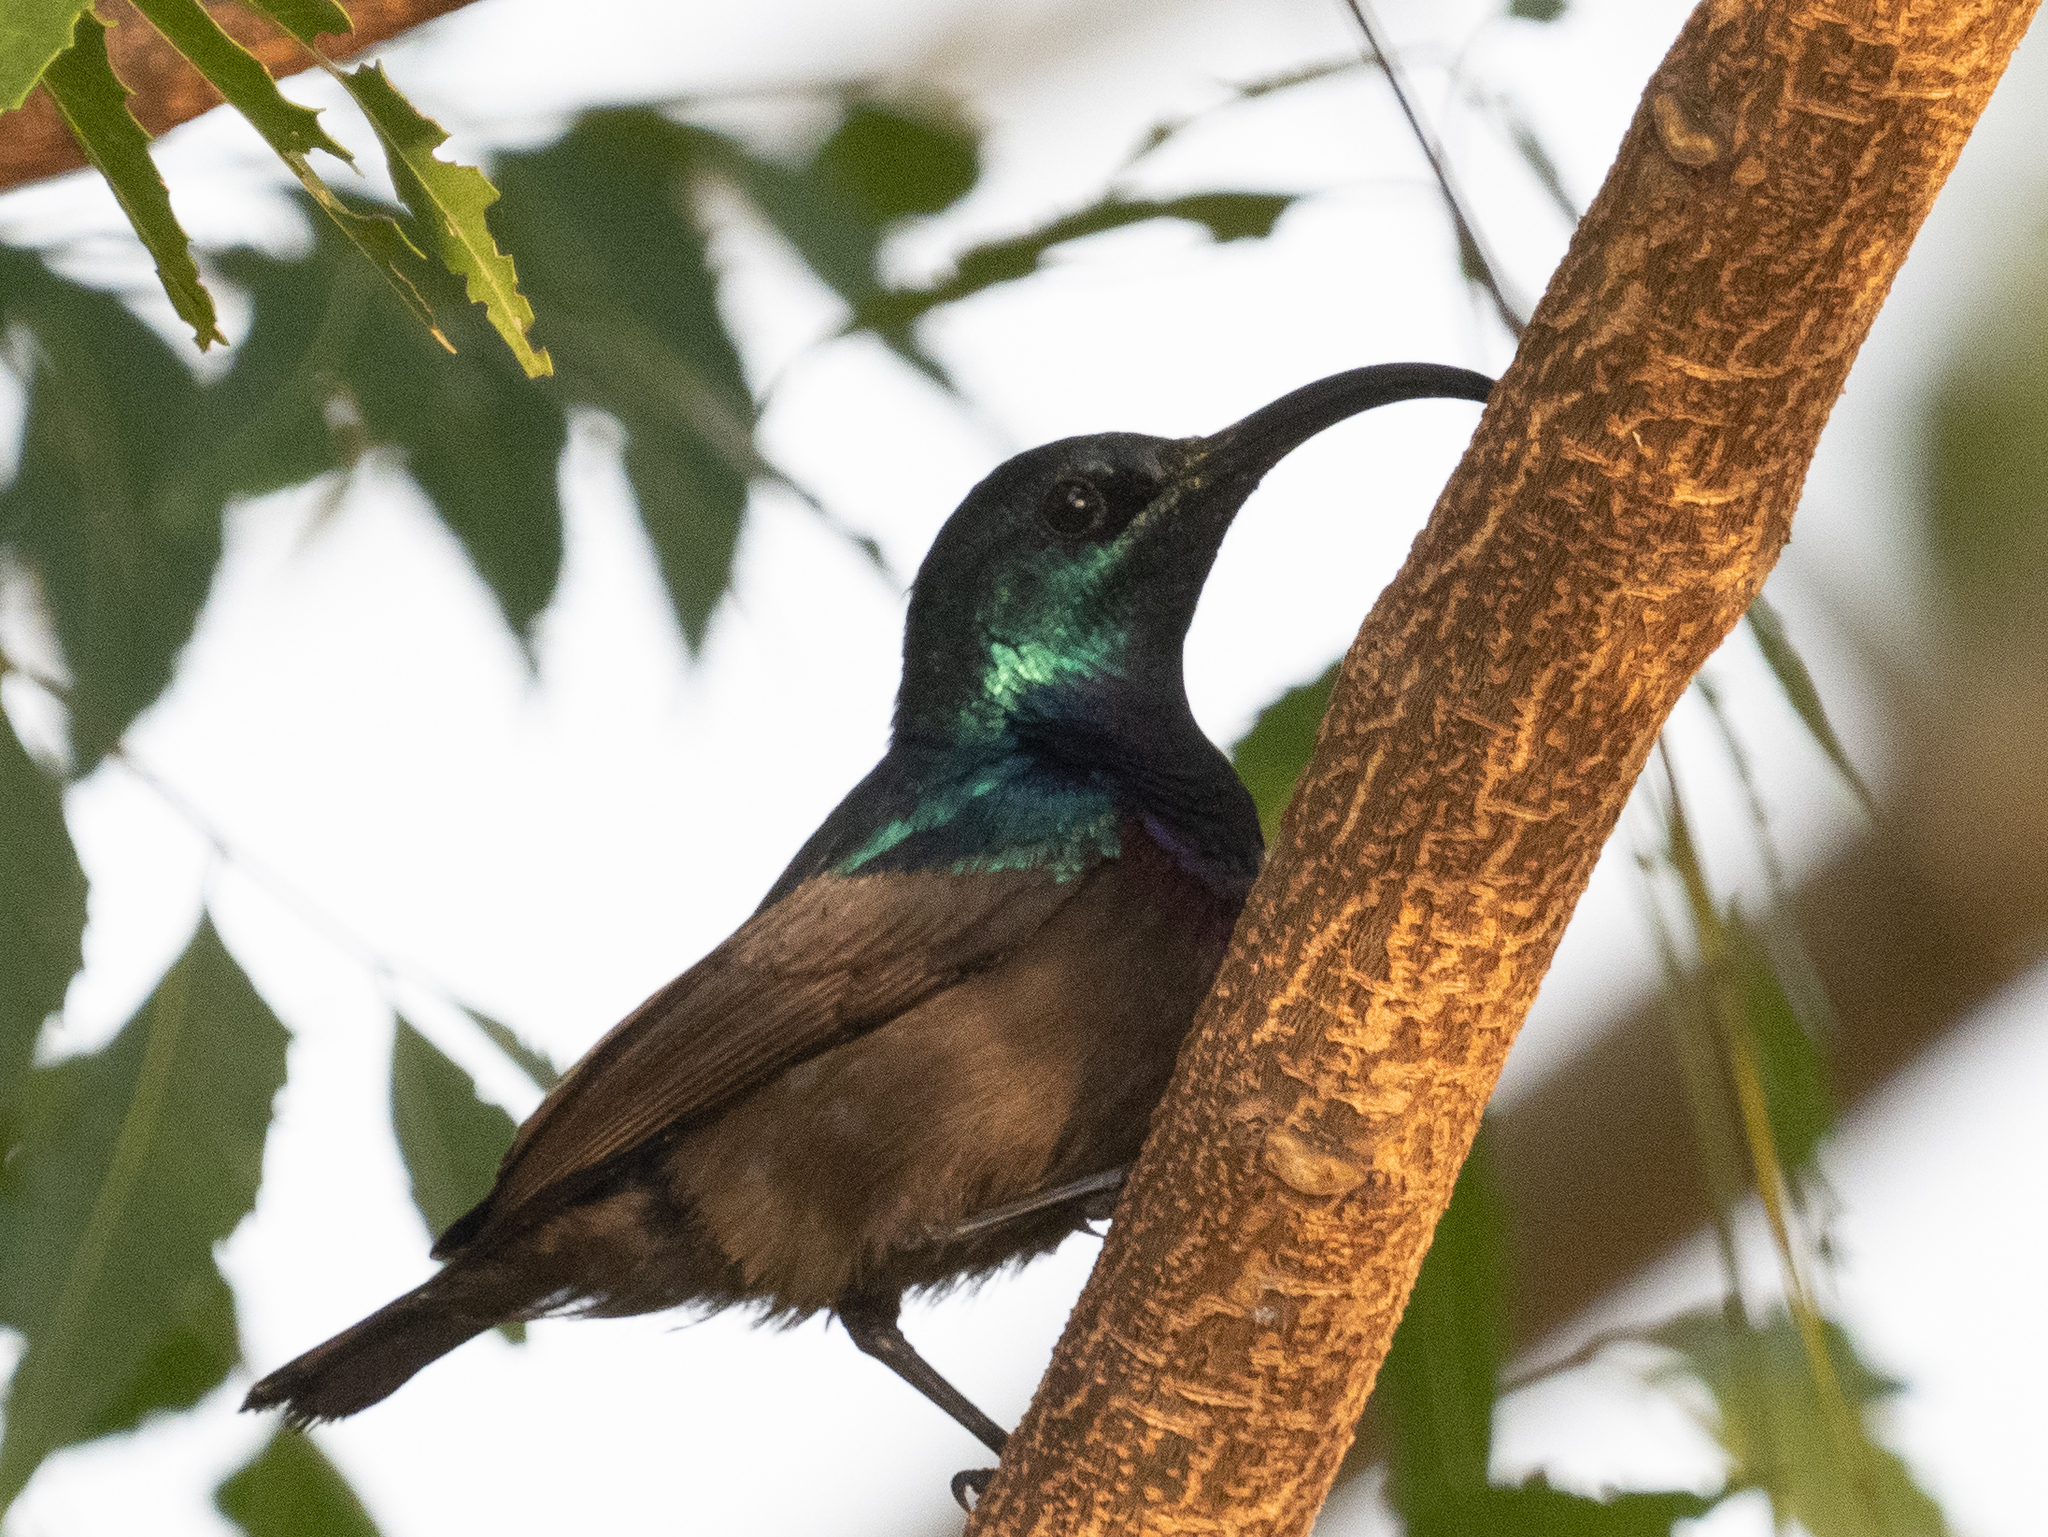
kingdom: Animalia
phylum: Chordata
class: Aves
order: Passeriformes
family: Nectariniidae
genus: Cinnyris
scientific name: Cinnyris lotenius
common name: Loten's sunbird
